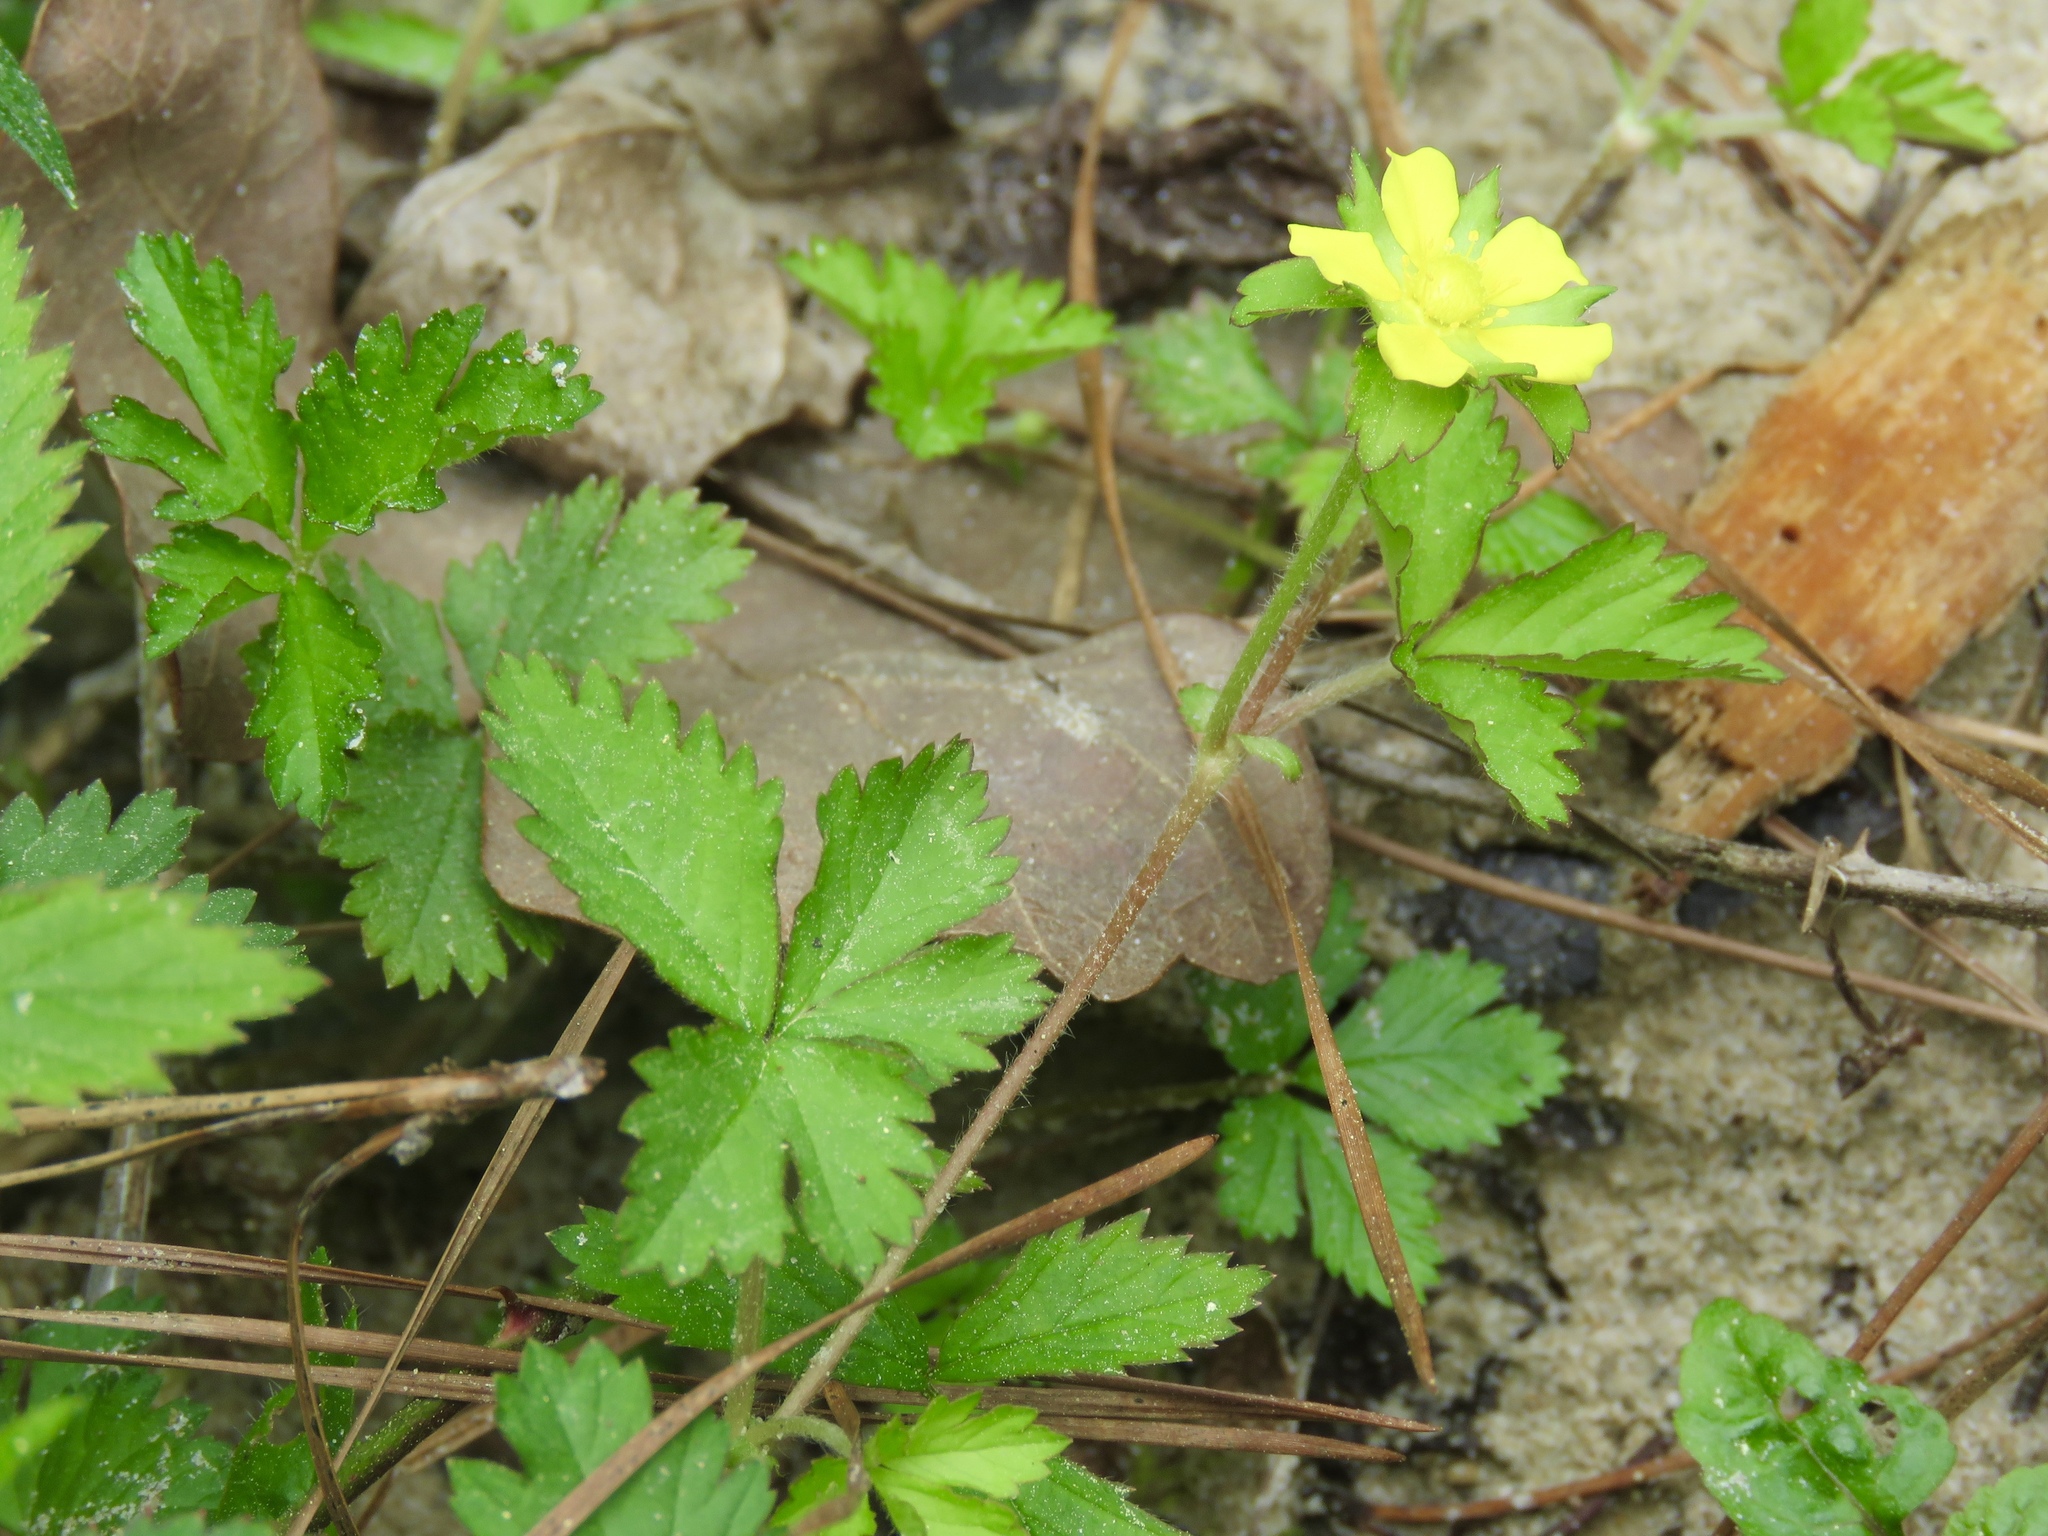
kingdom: Plantae
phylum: Tracheophyta
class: Magnoliopsida
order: Rosales
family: Rosaceae
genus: Potentilla
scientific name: Potentilla indica
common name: Yellow-flowered strawberry
